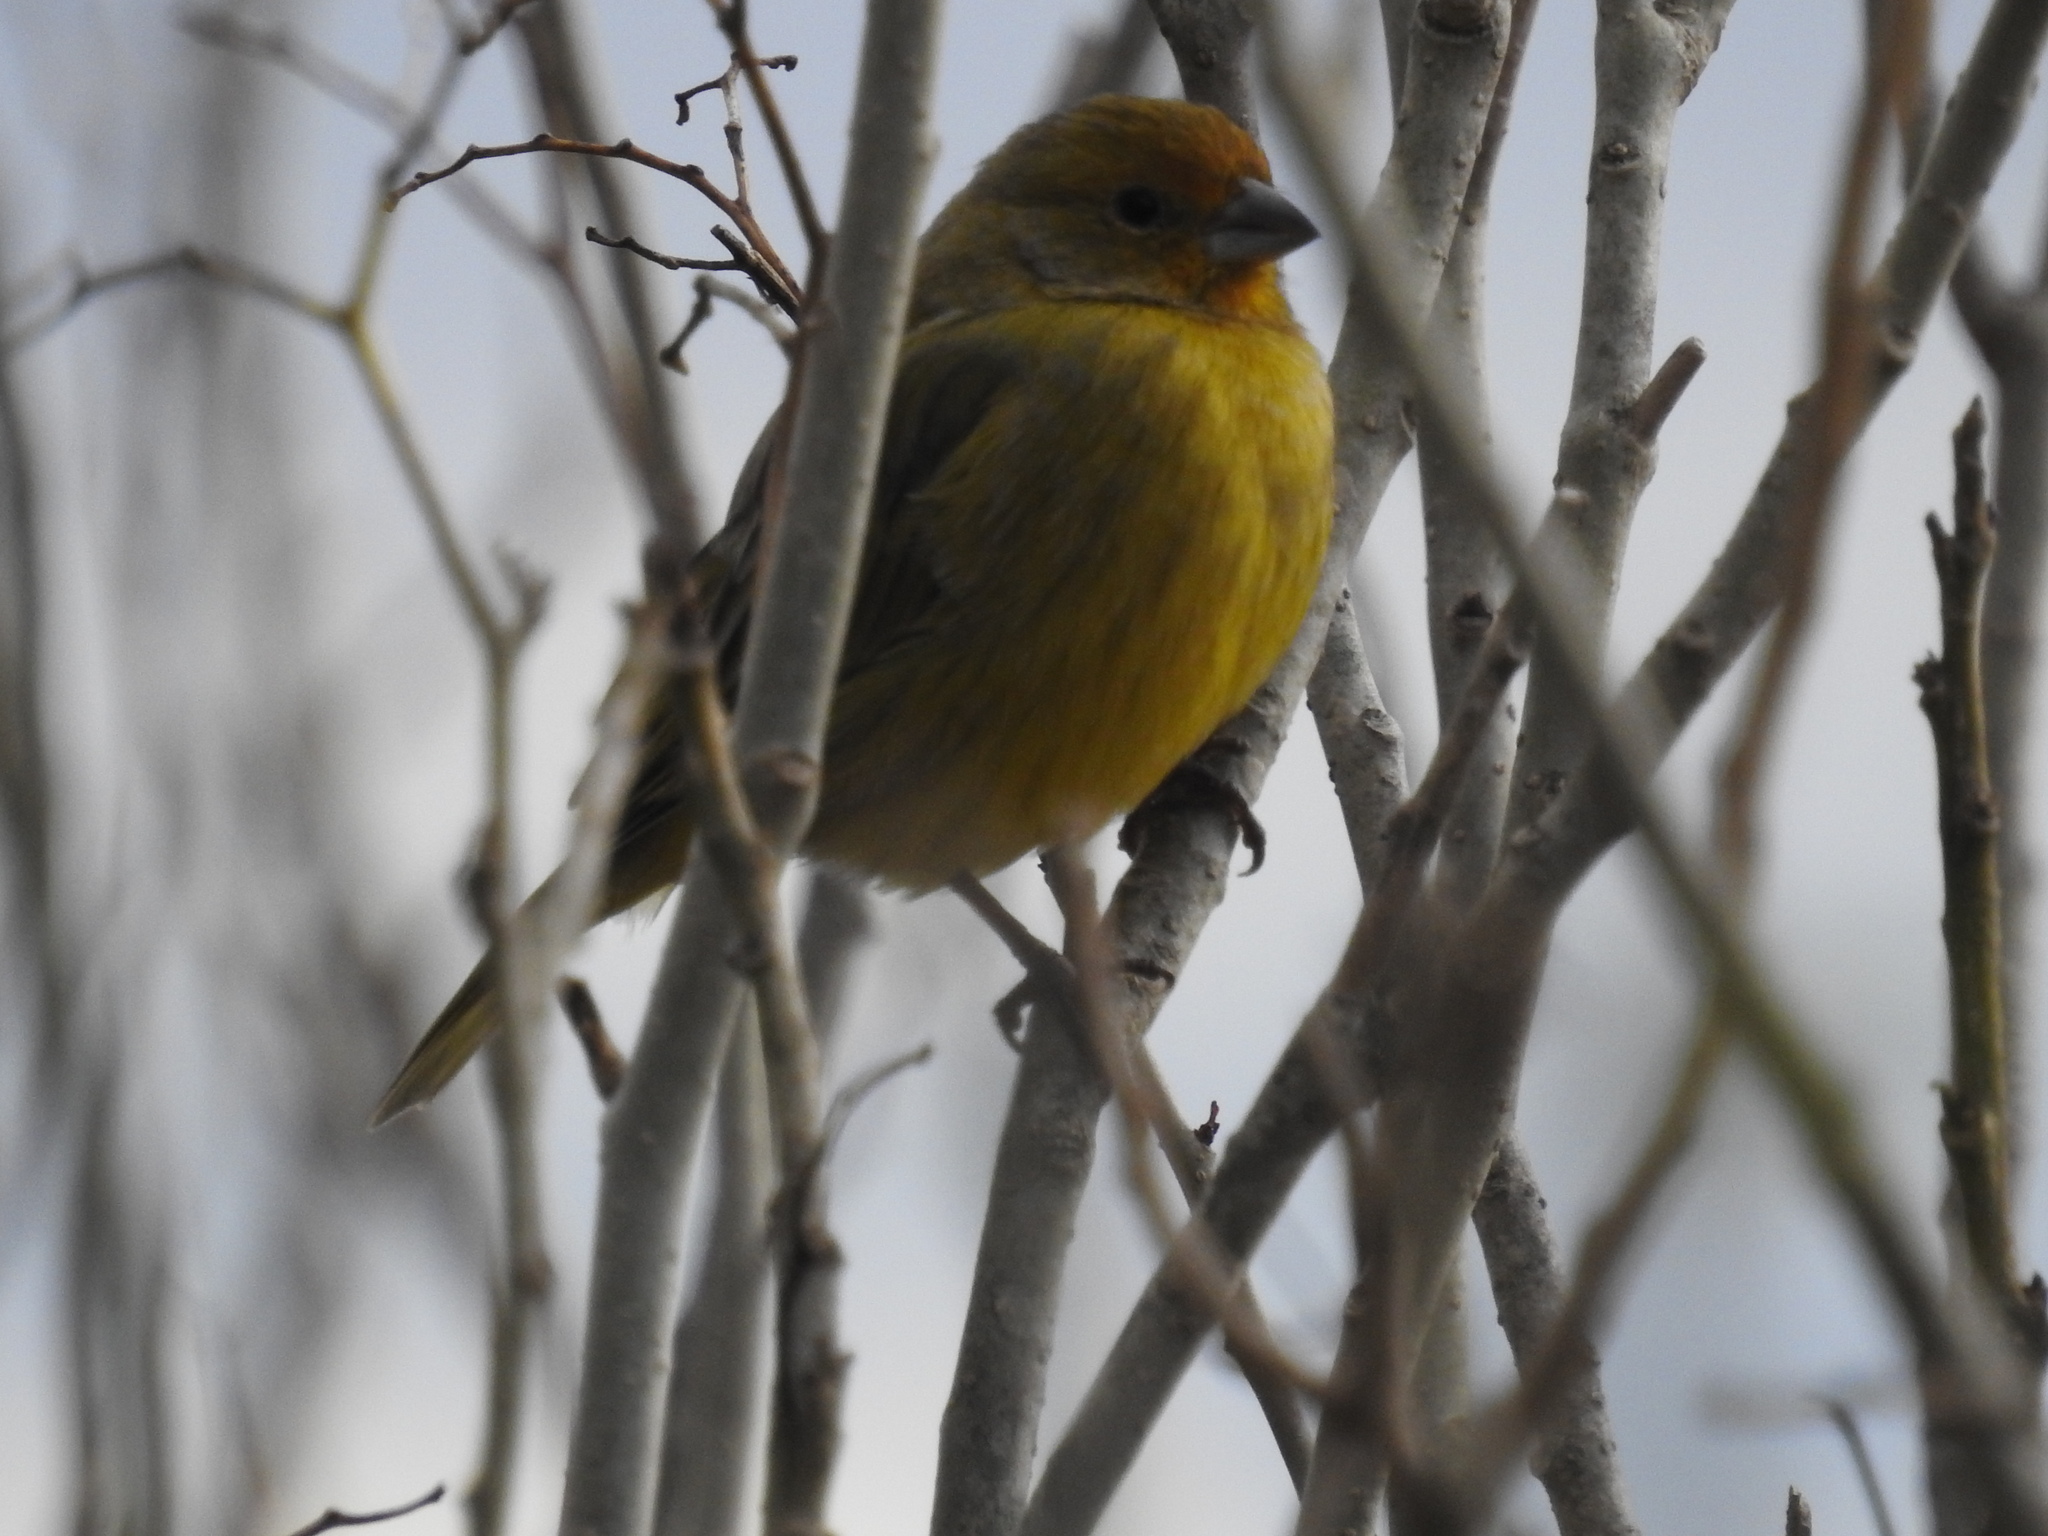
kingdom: Animalia
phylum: Chordata
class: Aves
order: Passeriformes
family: Thraupidae
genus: Sicalis
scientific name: Sicalis flaveola
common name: Saffron finch
